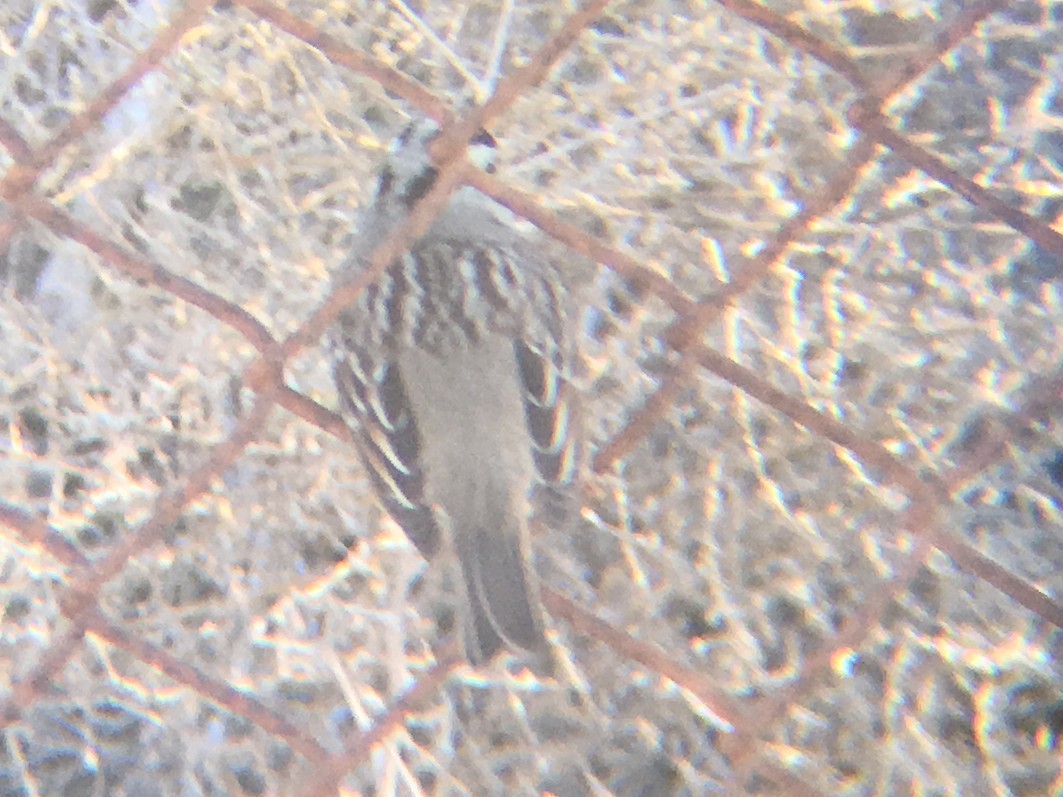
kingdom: Animalia
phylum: Chordata
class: Aves
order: Passeriformes
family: Passerellidae
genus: Zonotrichia
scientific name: Zonotrichia leucophrys
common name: White-crowned sparrow
